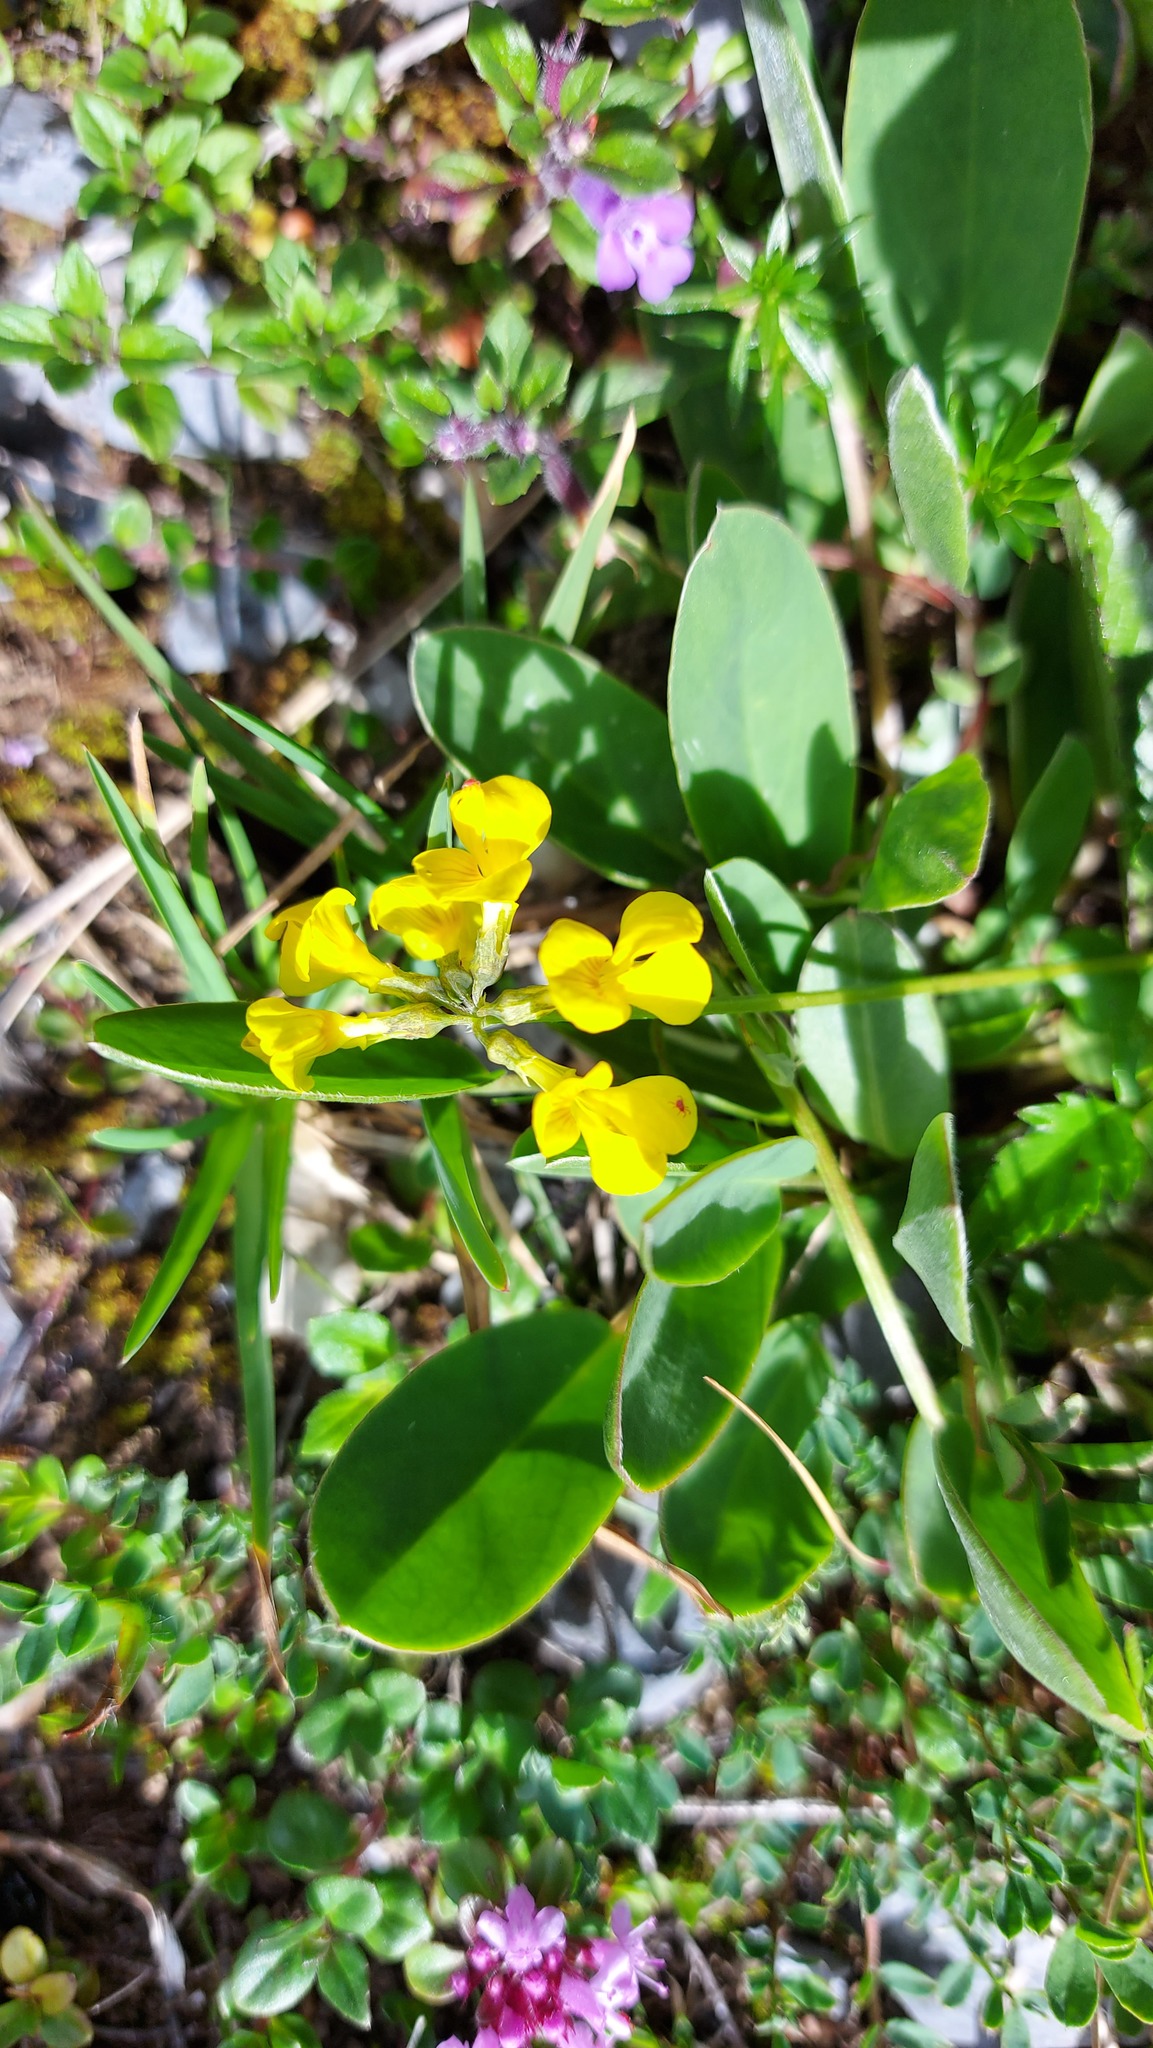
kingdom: Plantae
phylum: Tracheophyta
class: Magnoliopsida
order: Fabales
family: Fabaceae
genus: Hippocrepis
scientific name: Hippocrepis comosa
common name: Horseshoe vetch
